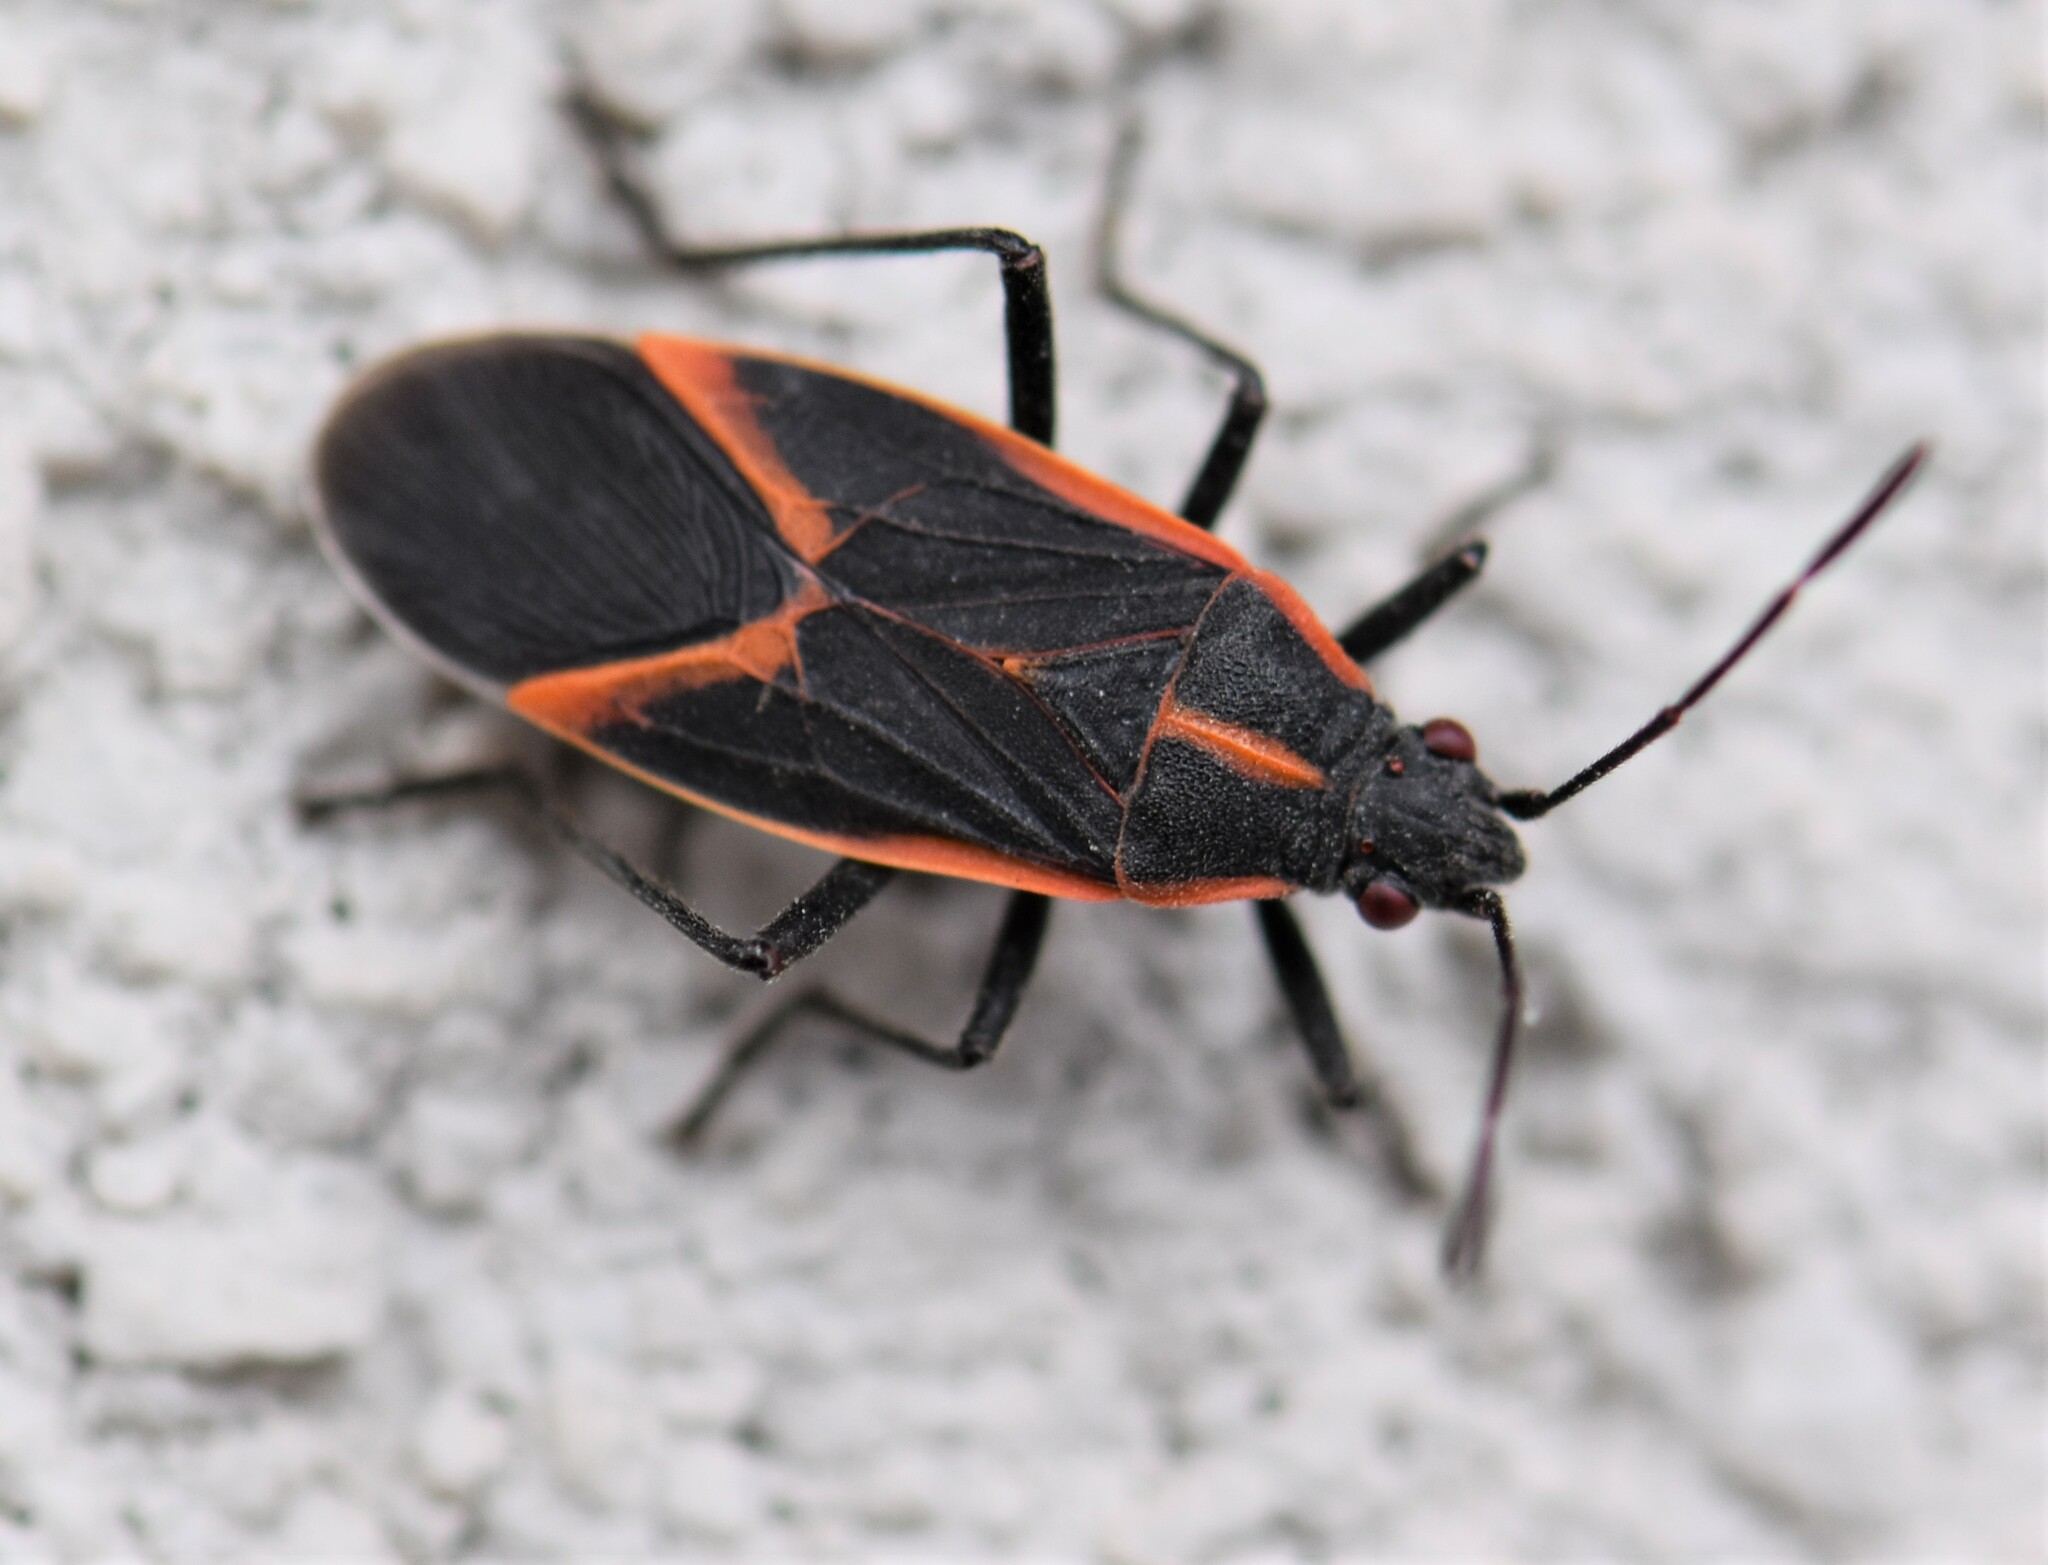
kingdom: Animalia
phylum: Arthropoda
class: Insecta
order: Hemiptera
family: Rhopalidae
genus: Boisea
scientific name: Boisea trivittata
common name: Boxelder bug
